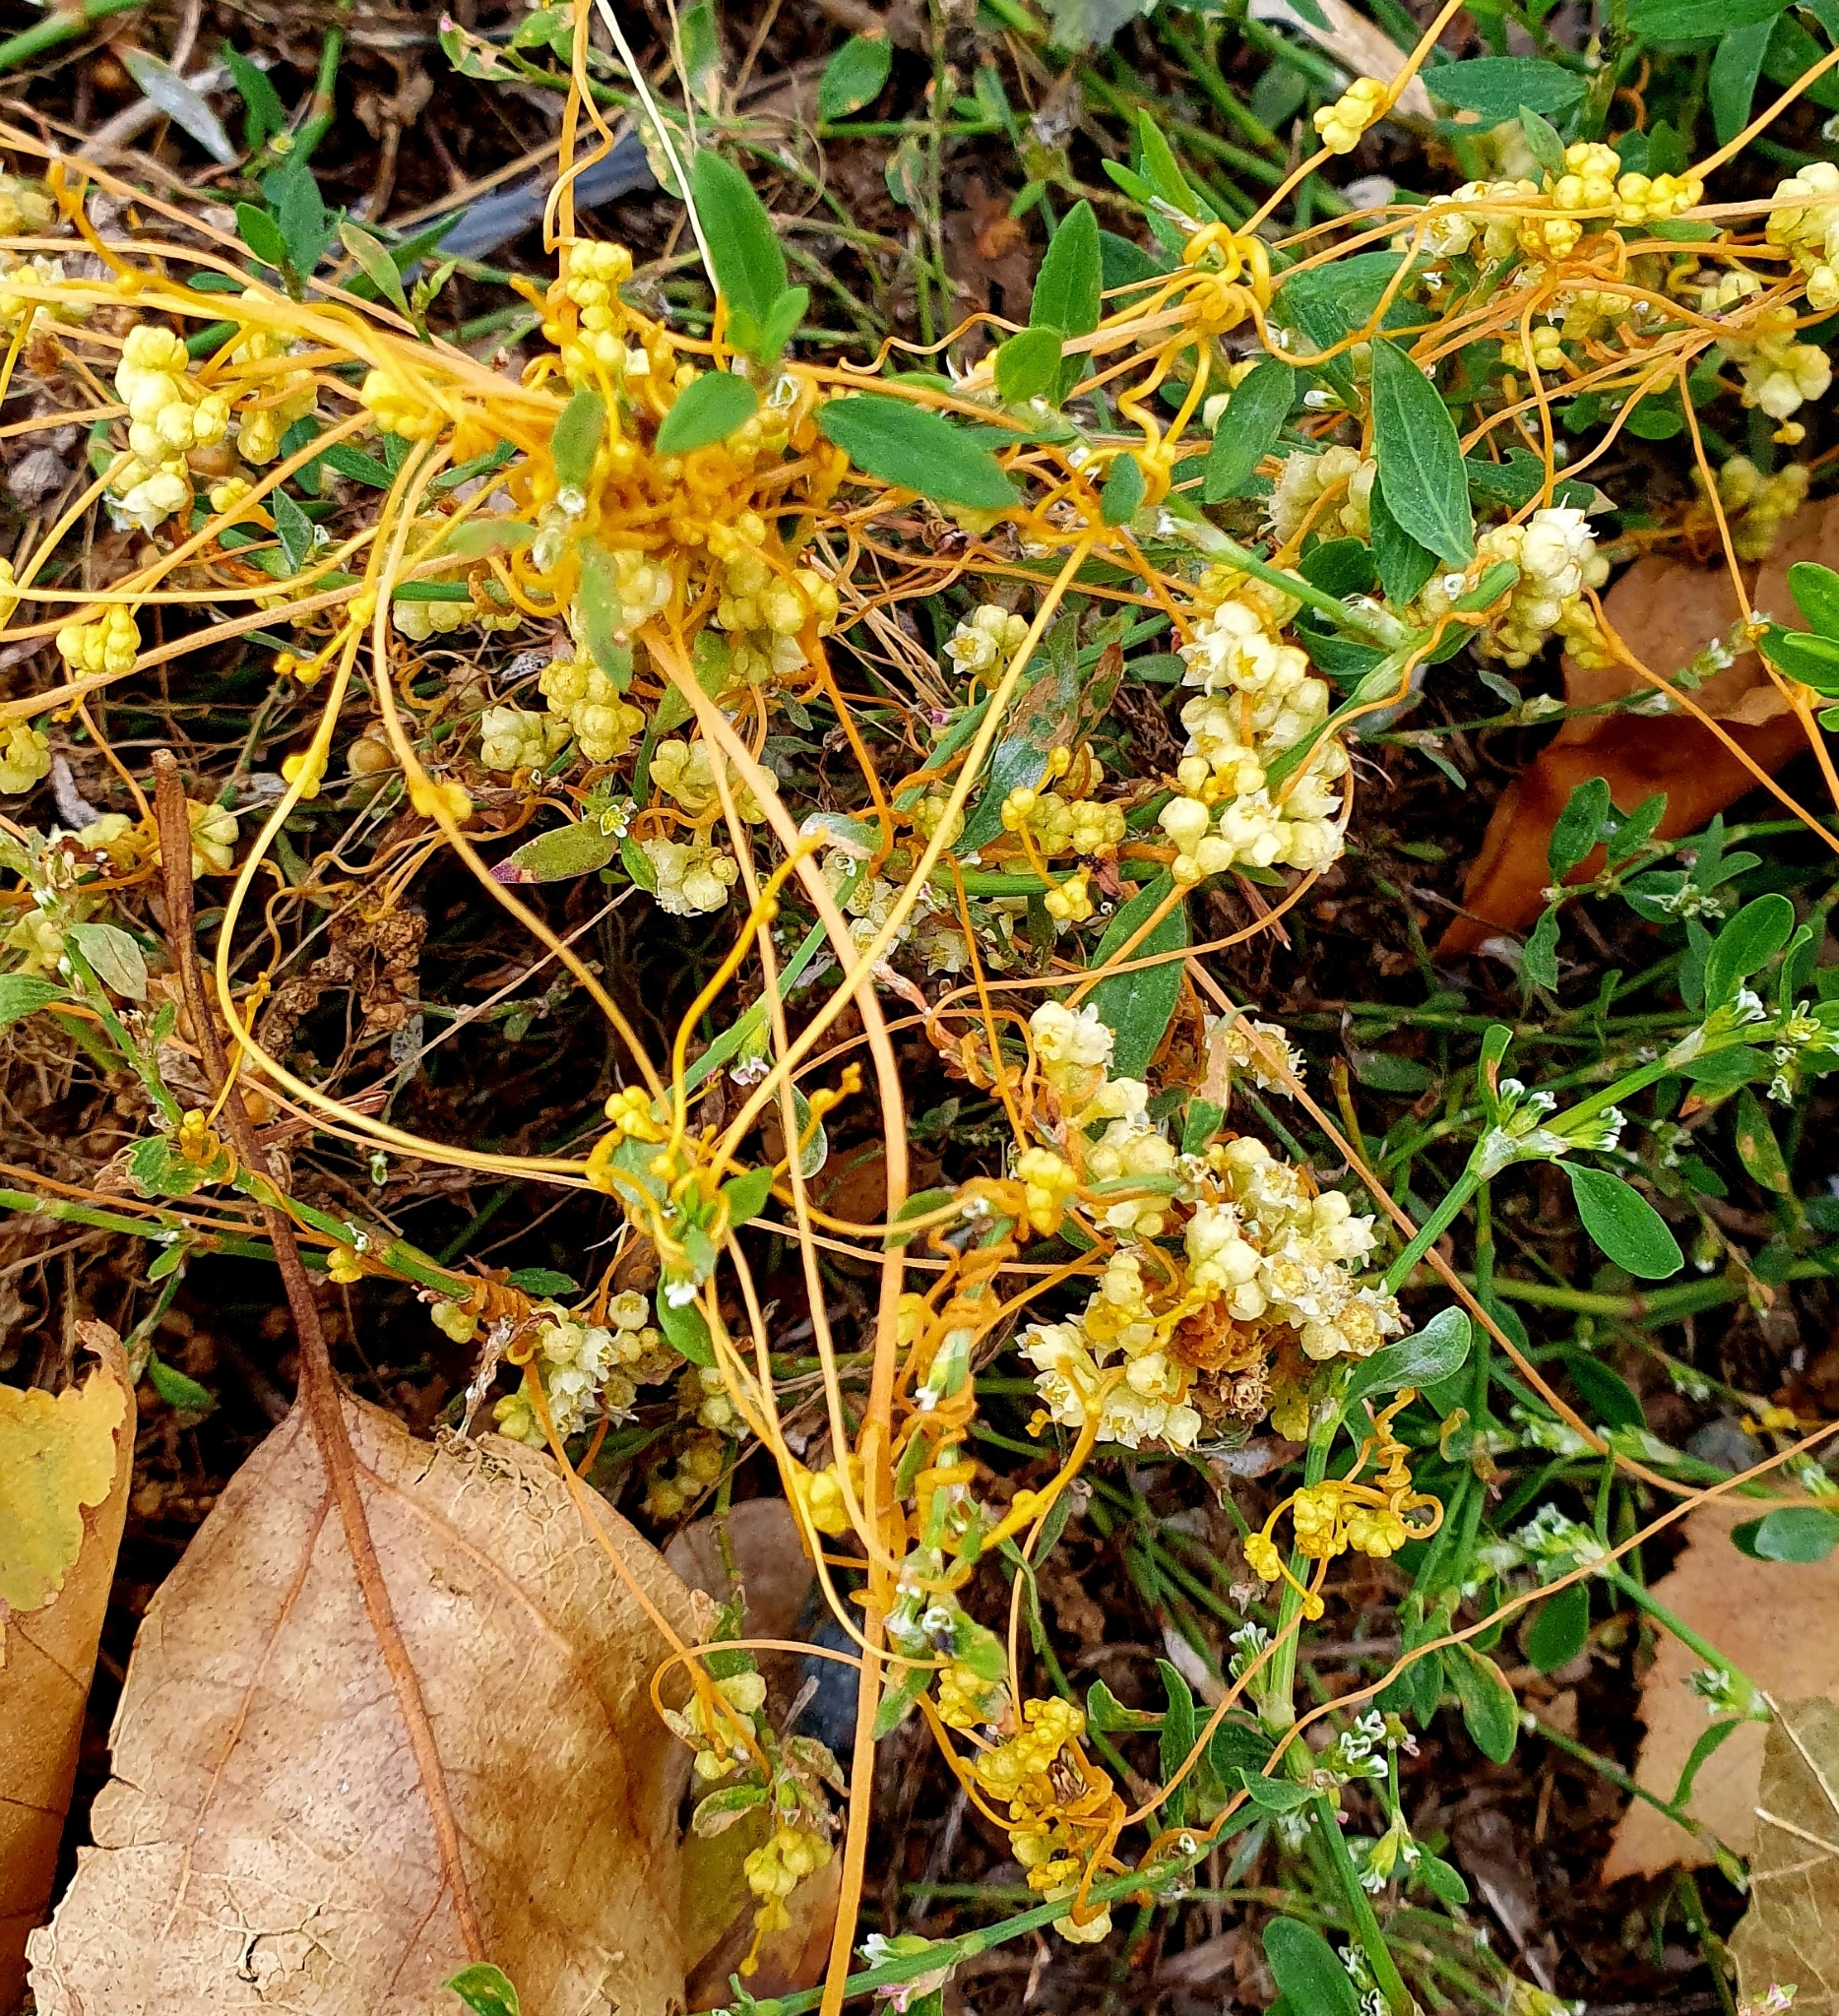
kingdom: Plantae
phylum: Tracheophyta
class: Magnoliopsida
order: Solanales
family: Convolvulaceae
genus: Cuscuta
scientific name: Cuscuta campestris
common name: Yellow dodder
